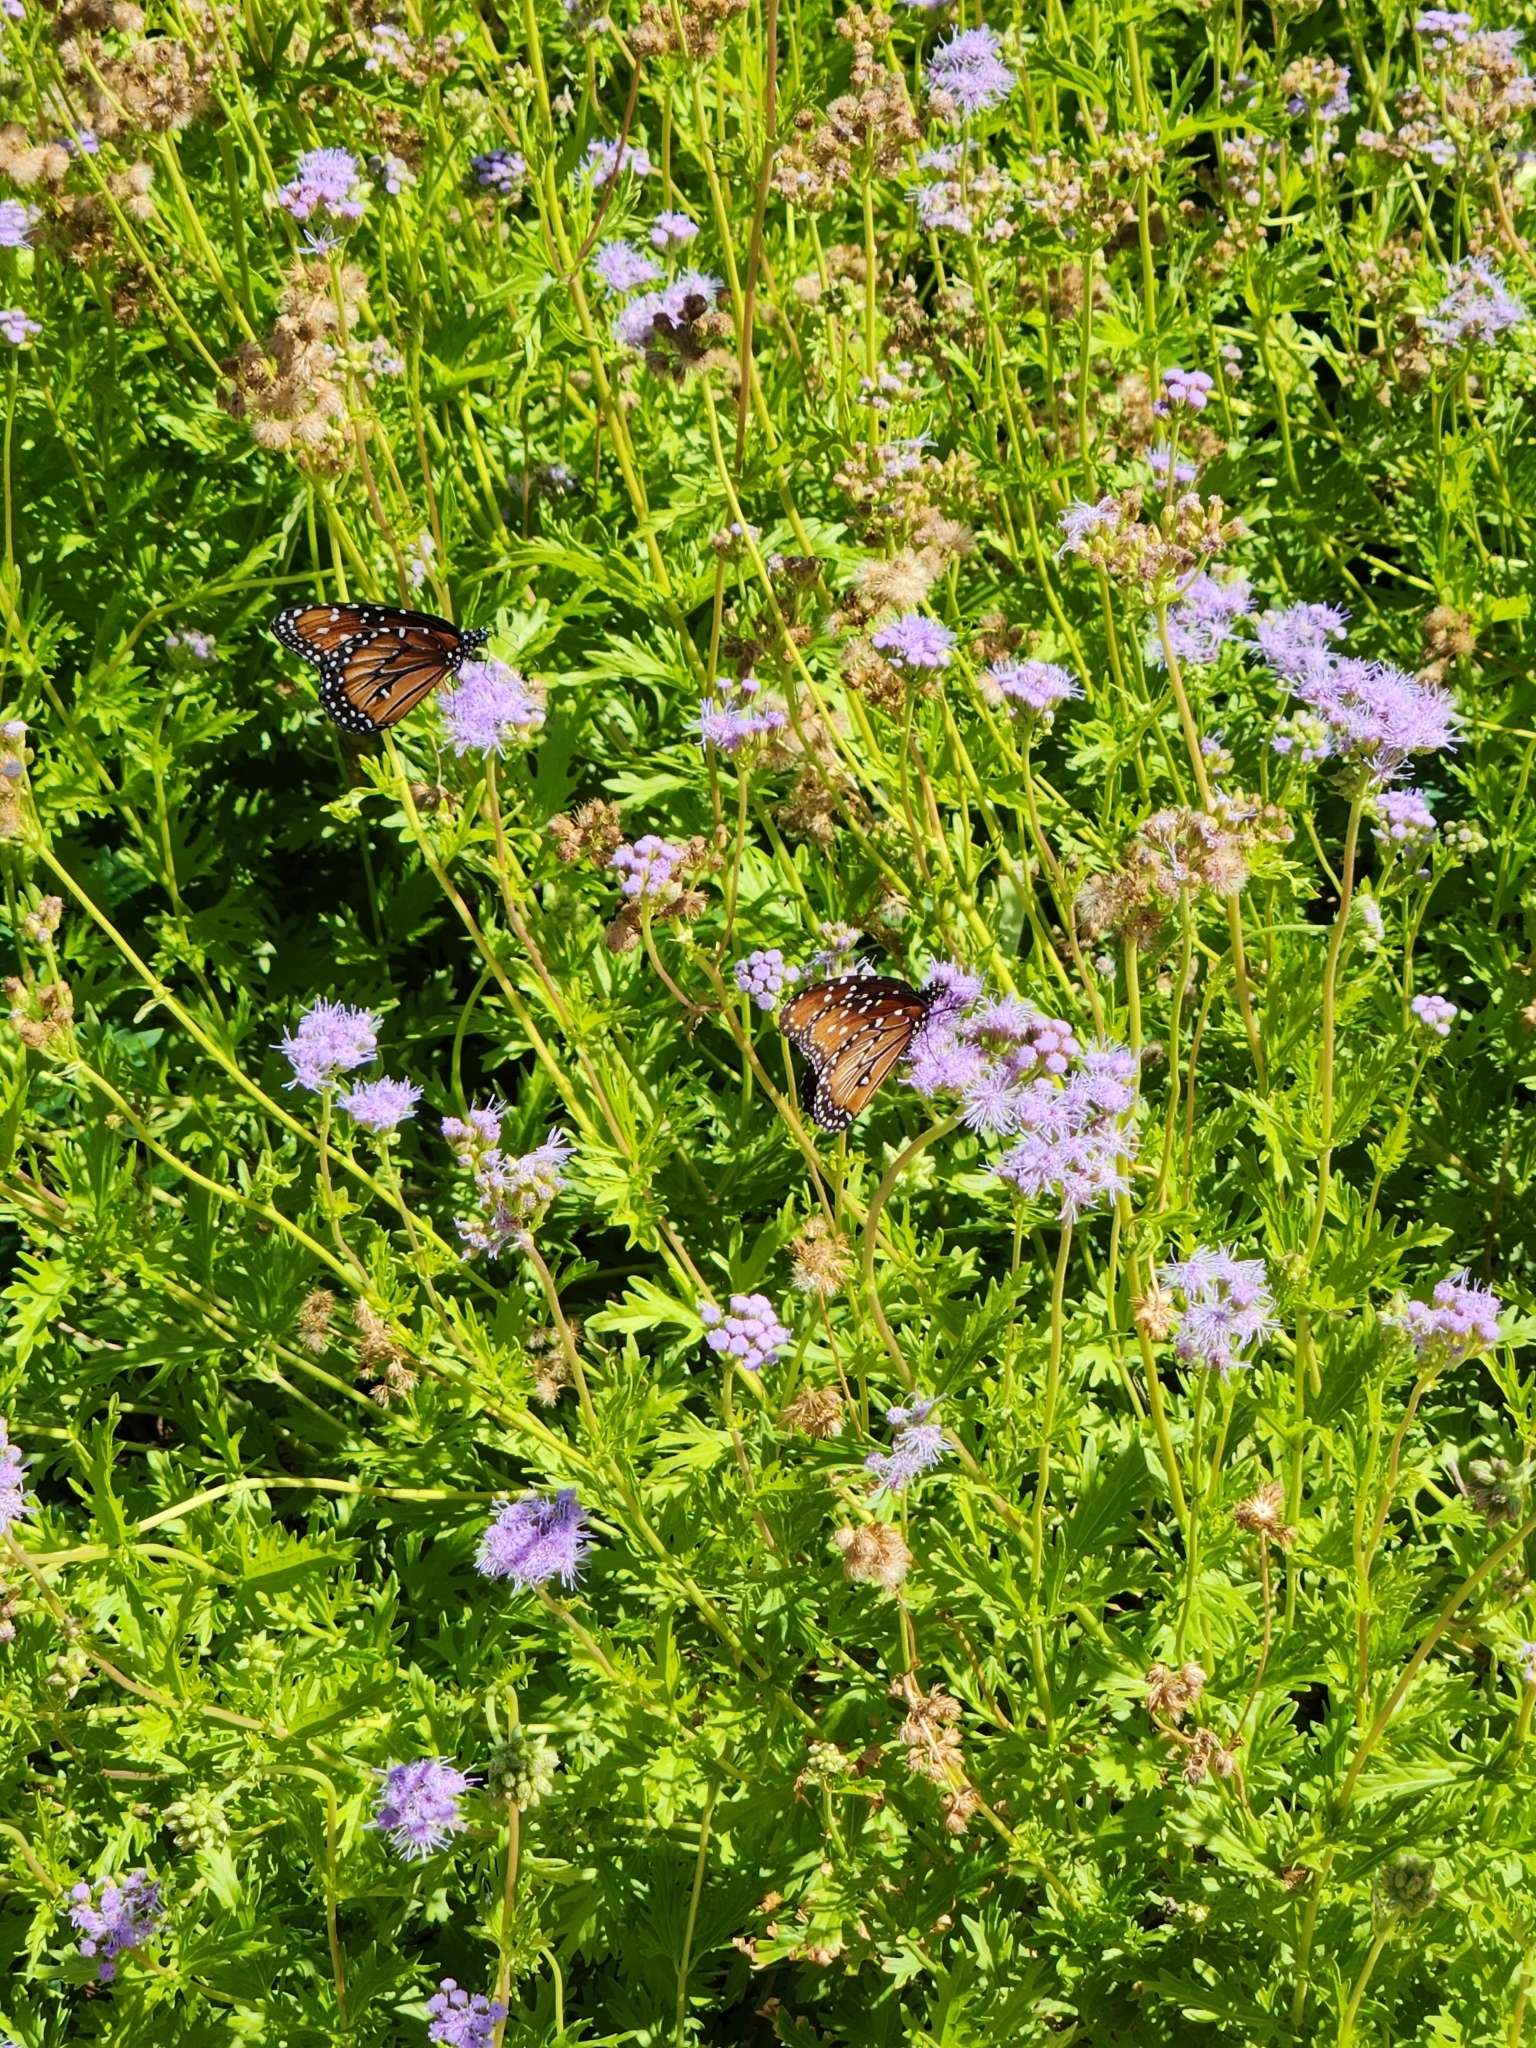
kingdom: Animalia
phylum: Arthropoda
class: Insecta
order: Lepidoptera
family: Nymphalidae
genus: Danaus
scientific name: Danaus gilippus
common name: Queen
